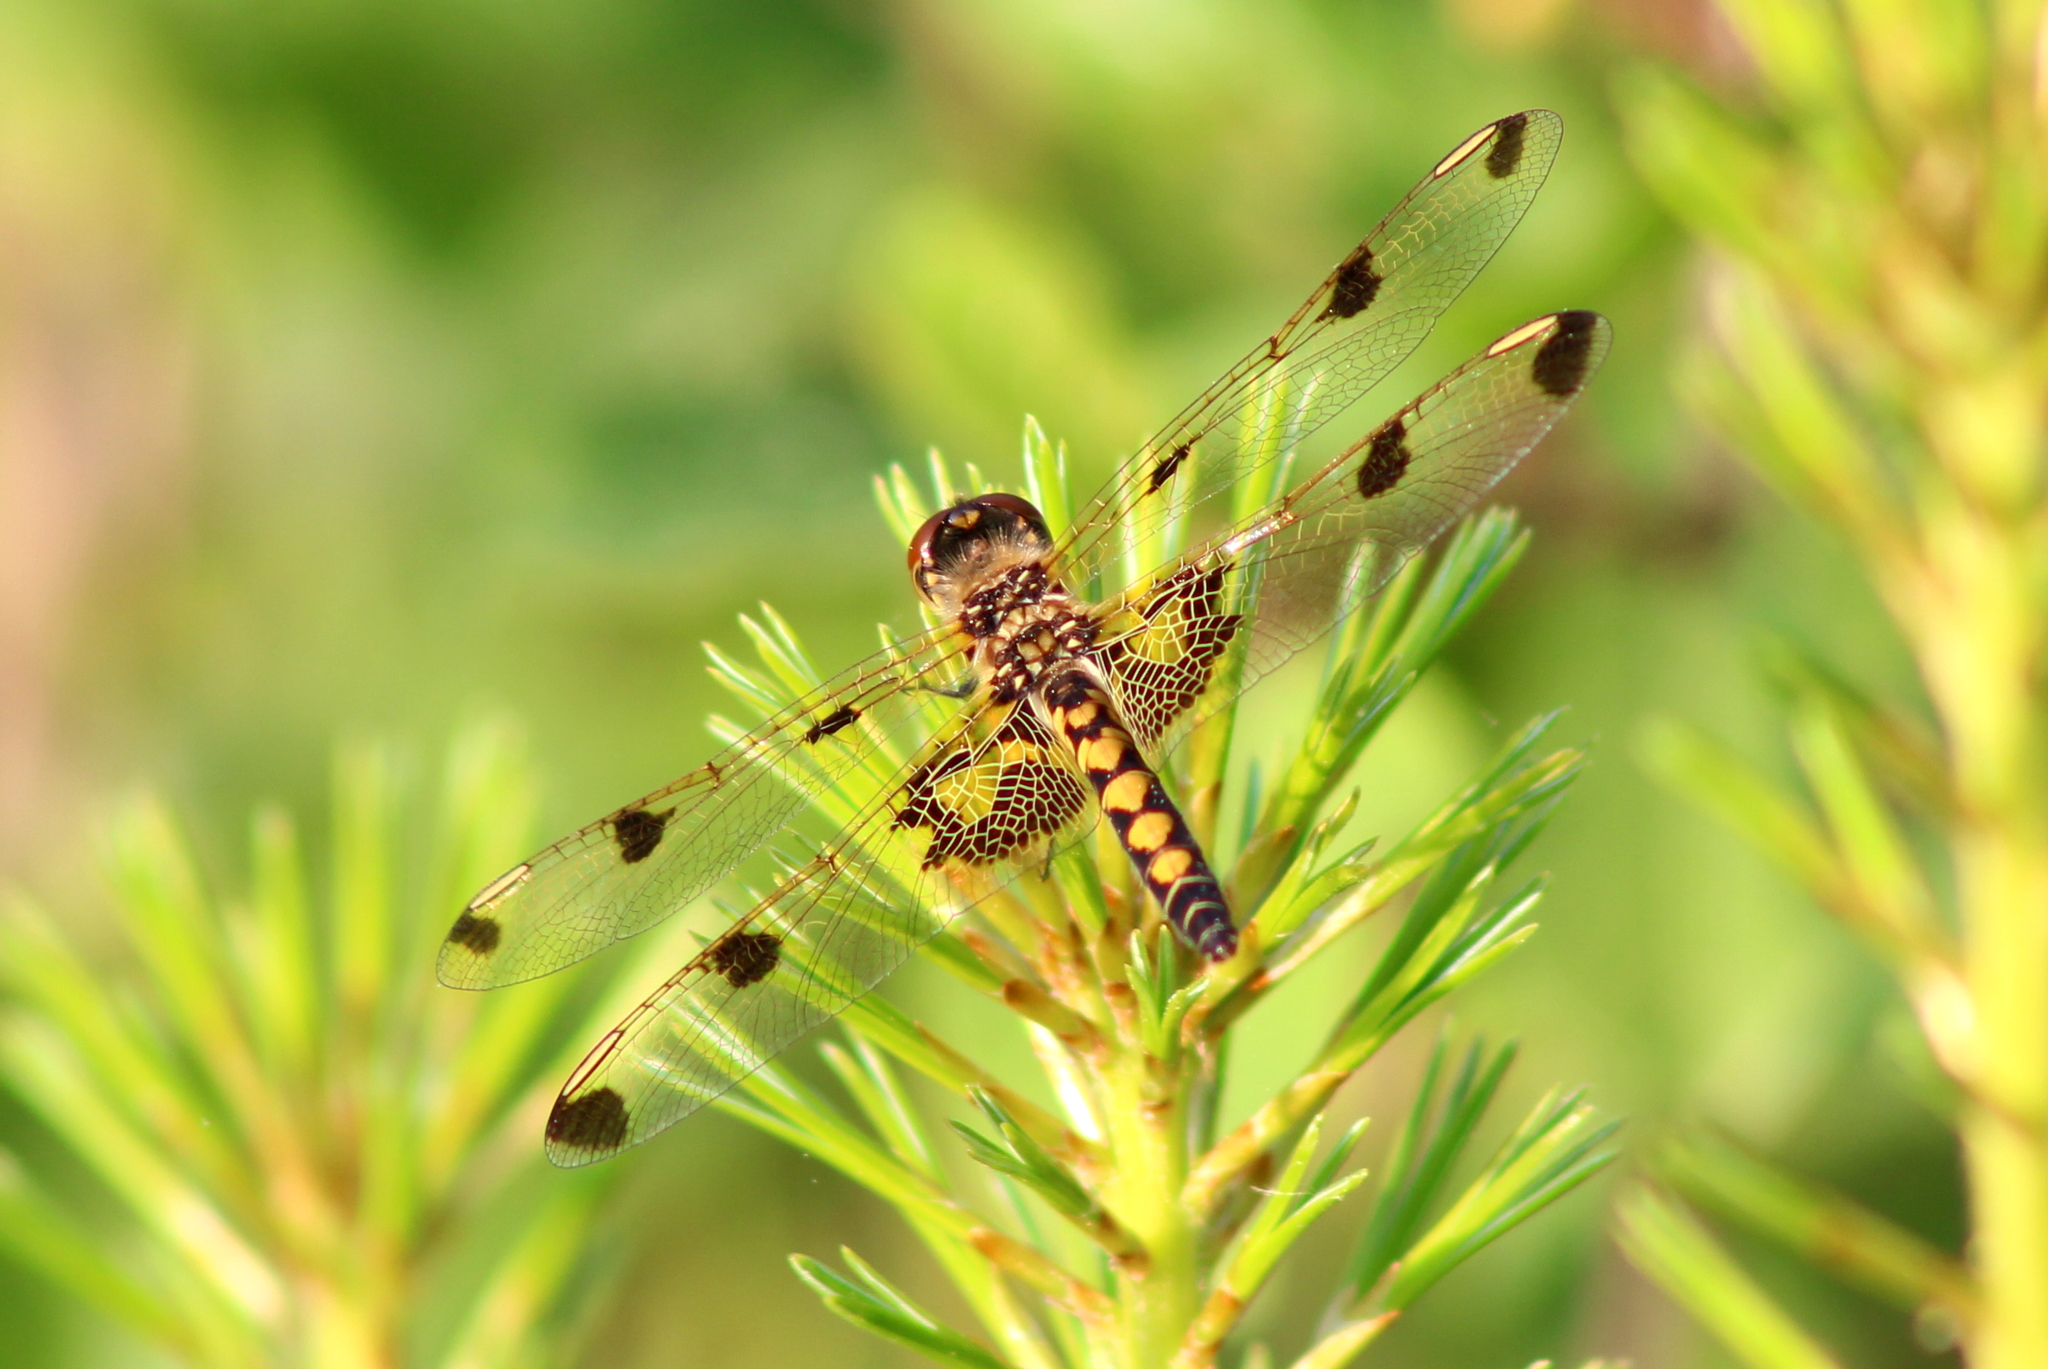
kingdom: Animalia
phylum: Arthropoda
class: Insecta
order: Odonata
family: Libellulidae
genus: Celithemis
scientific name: Celithemis elisa
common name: Calico pennant
